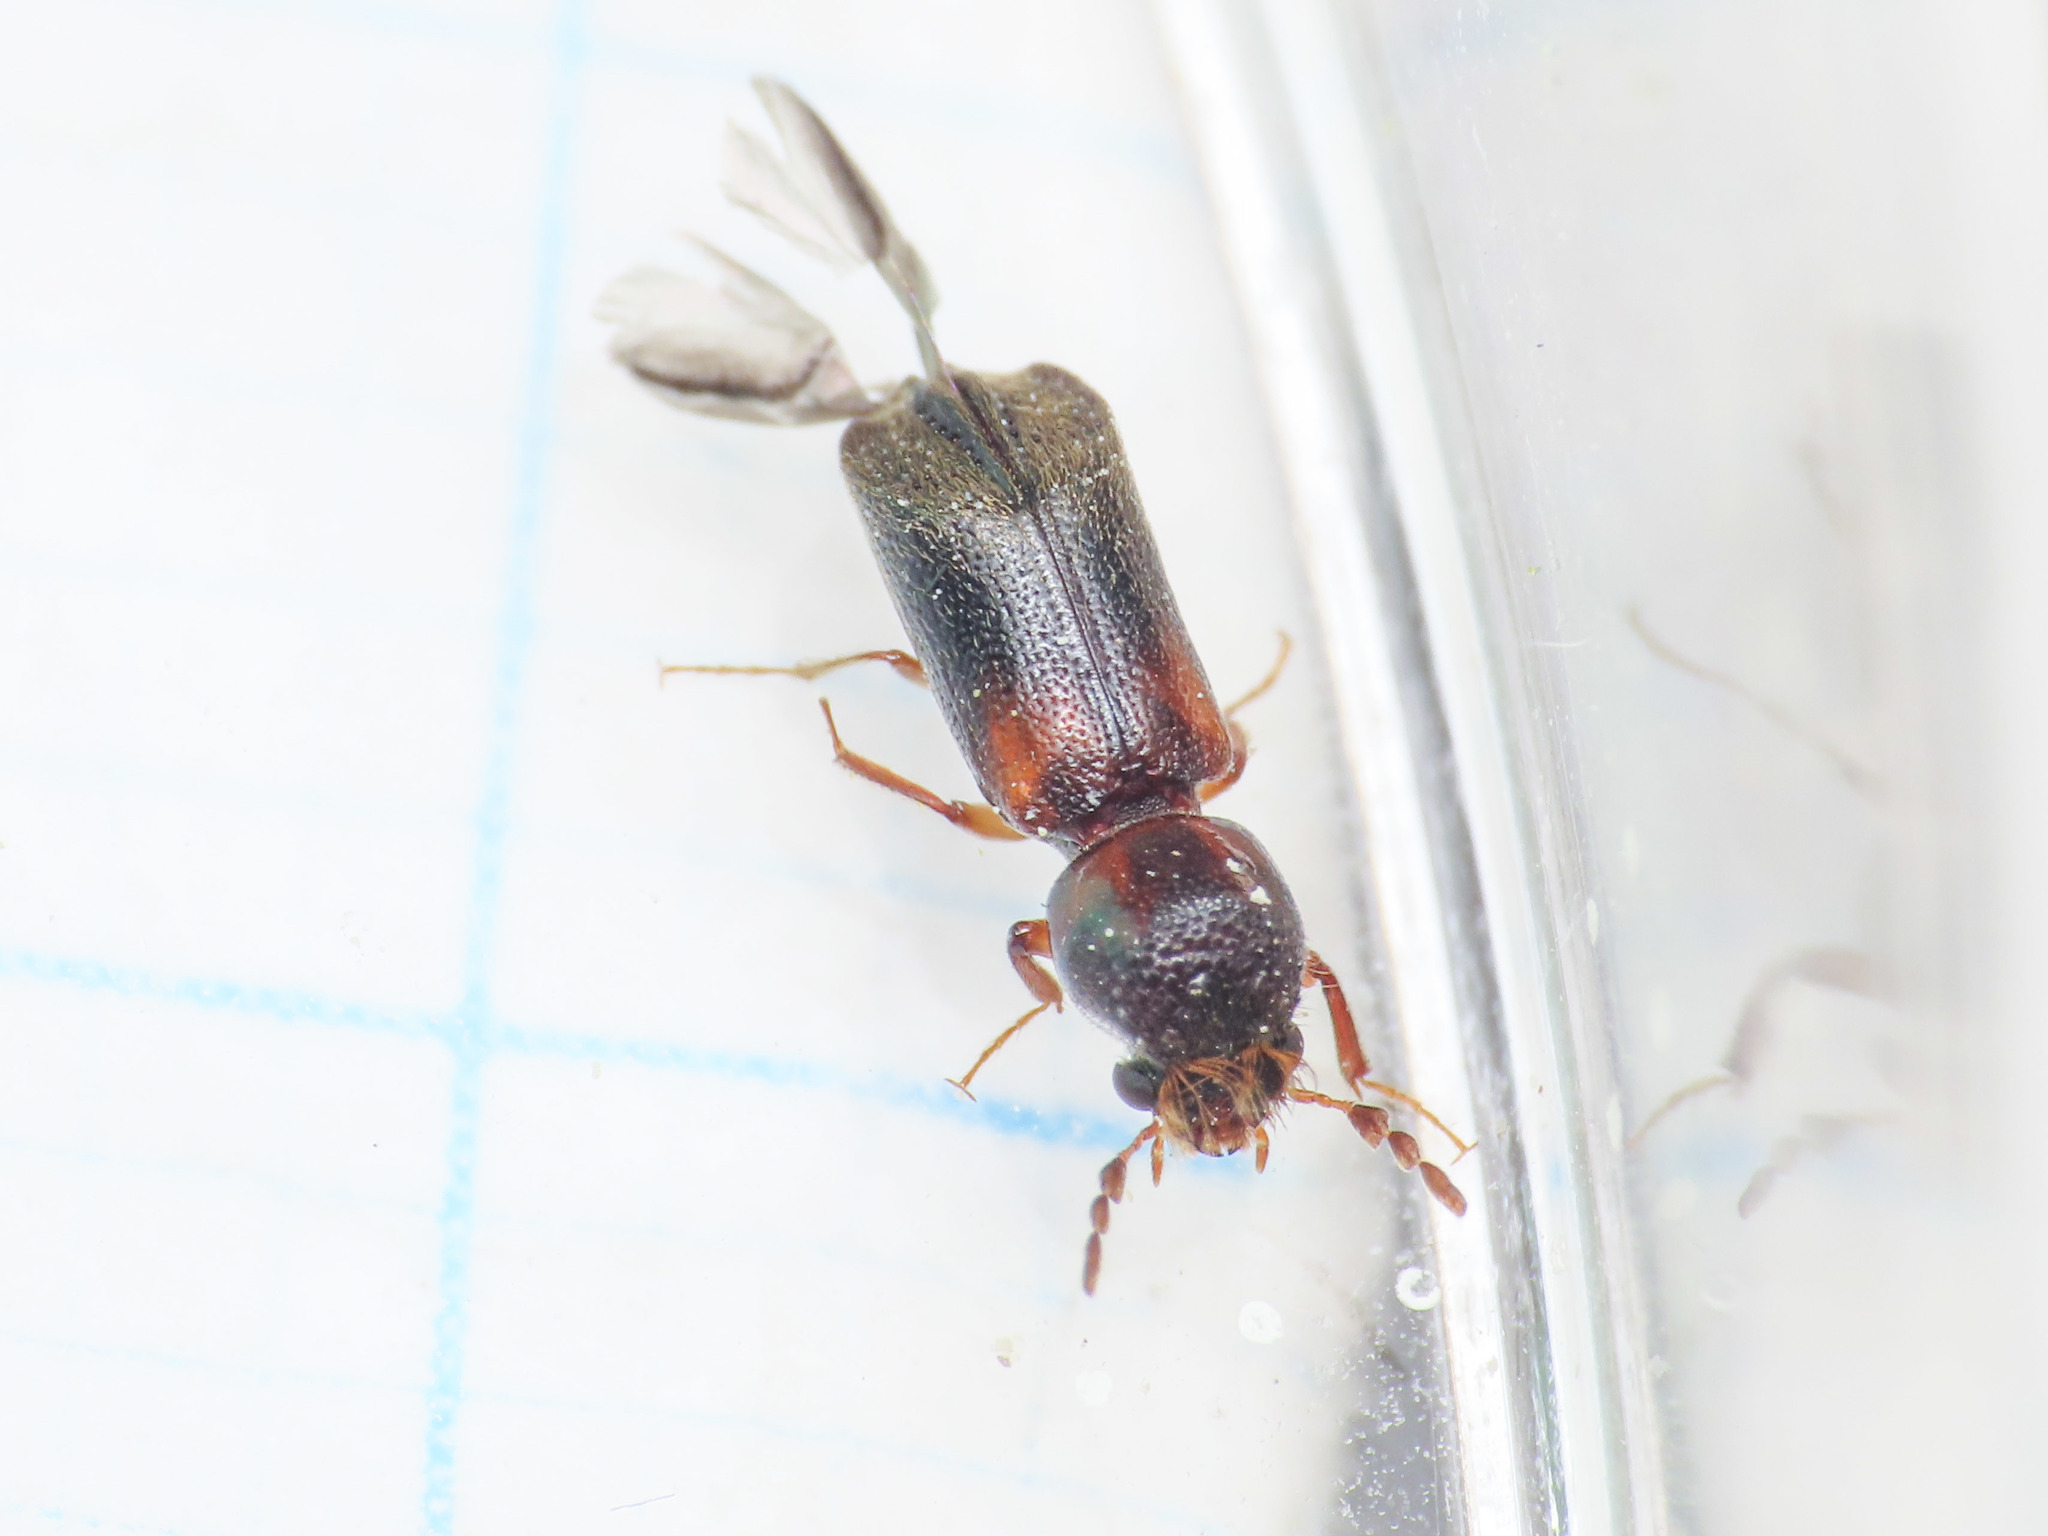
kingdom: Animalia
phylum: Arthropoda
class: Insecta
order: Coleoptera
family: Bostrichidae
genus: Scobicia
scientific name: Scobicia chevrieri
